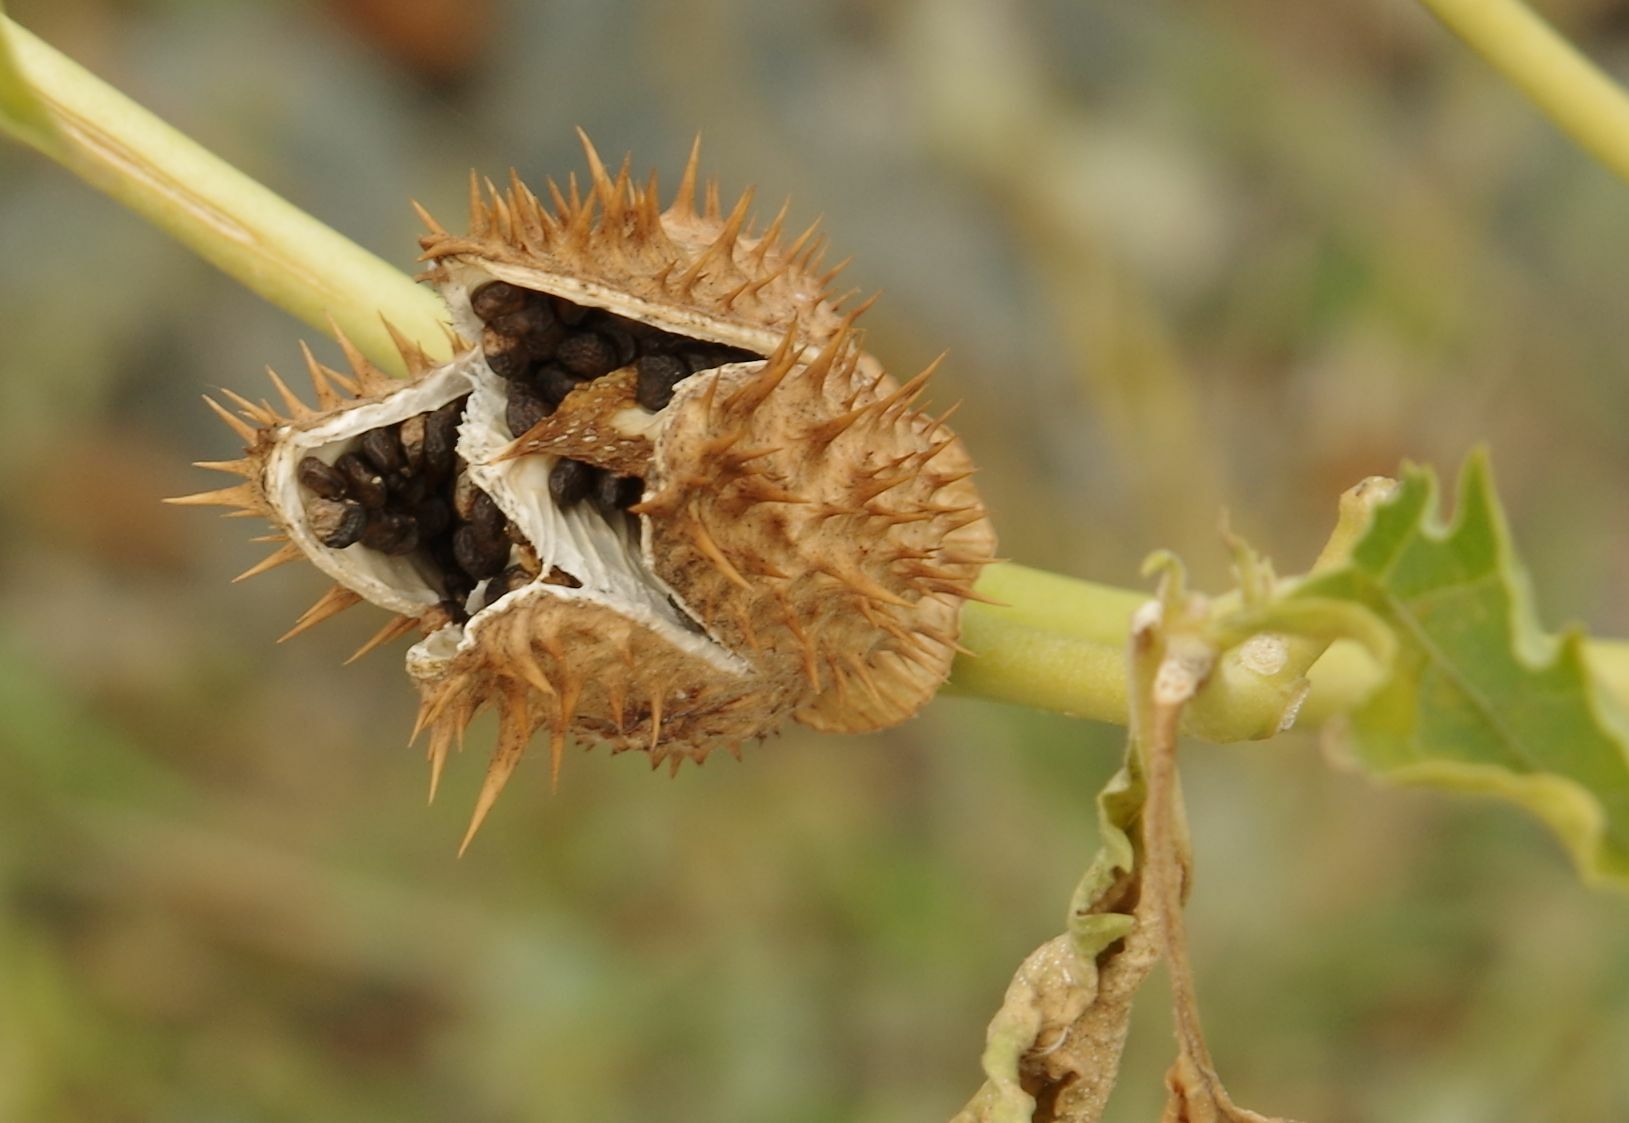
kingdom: Plantae
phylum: Tracheophyta
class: Magnoliopsida
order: Solanales
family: Solanaceae
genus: Datura
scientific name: Datura stramonium
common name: Thorn-apple
